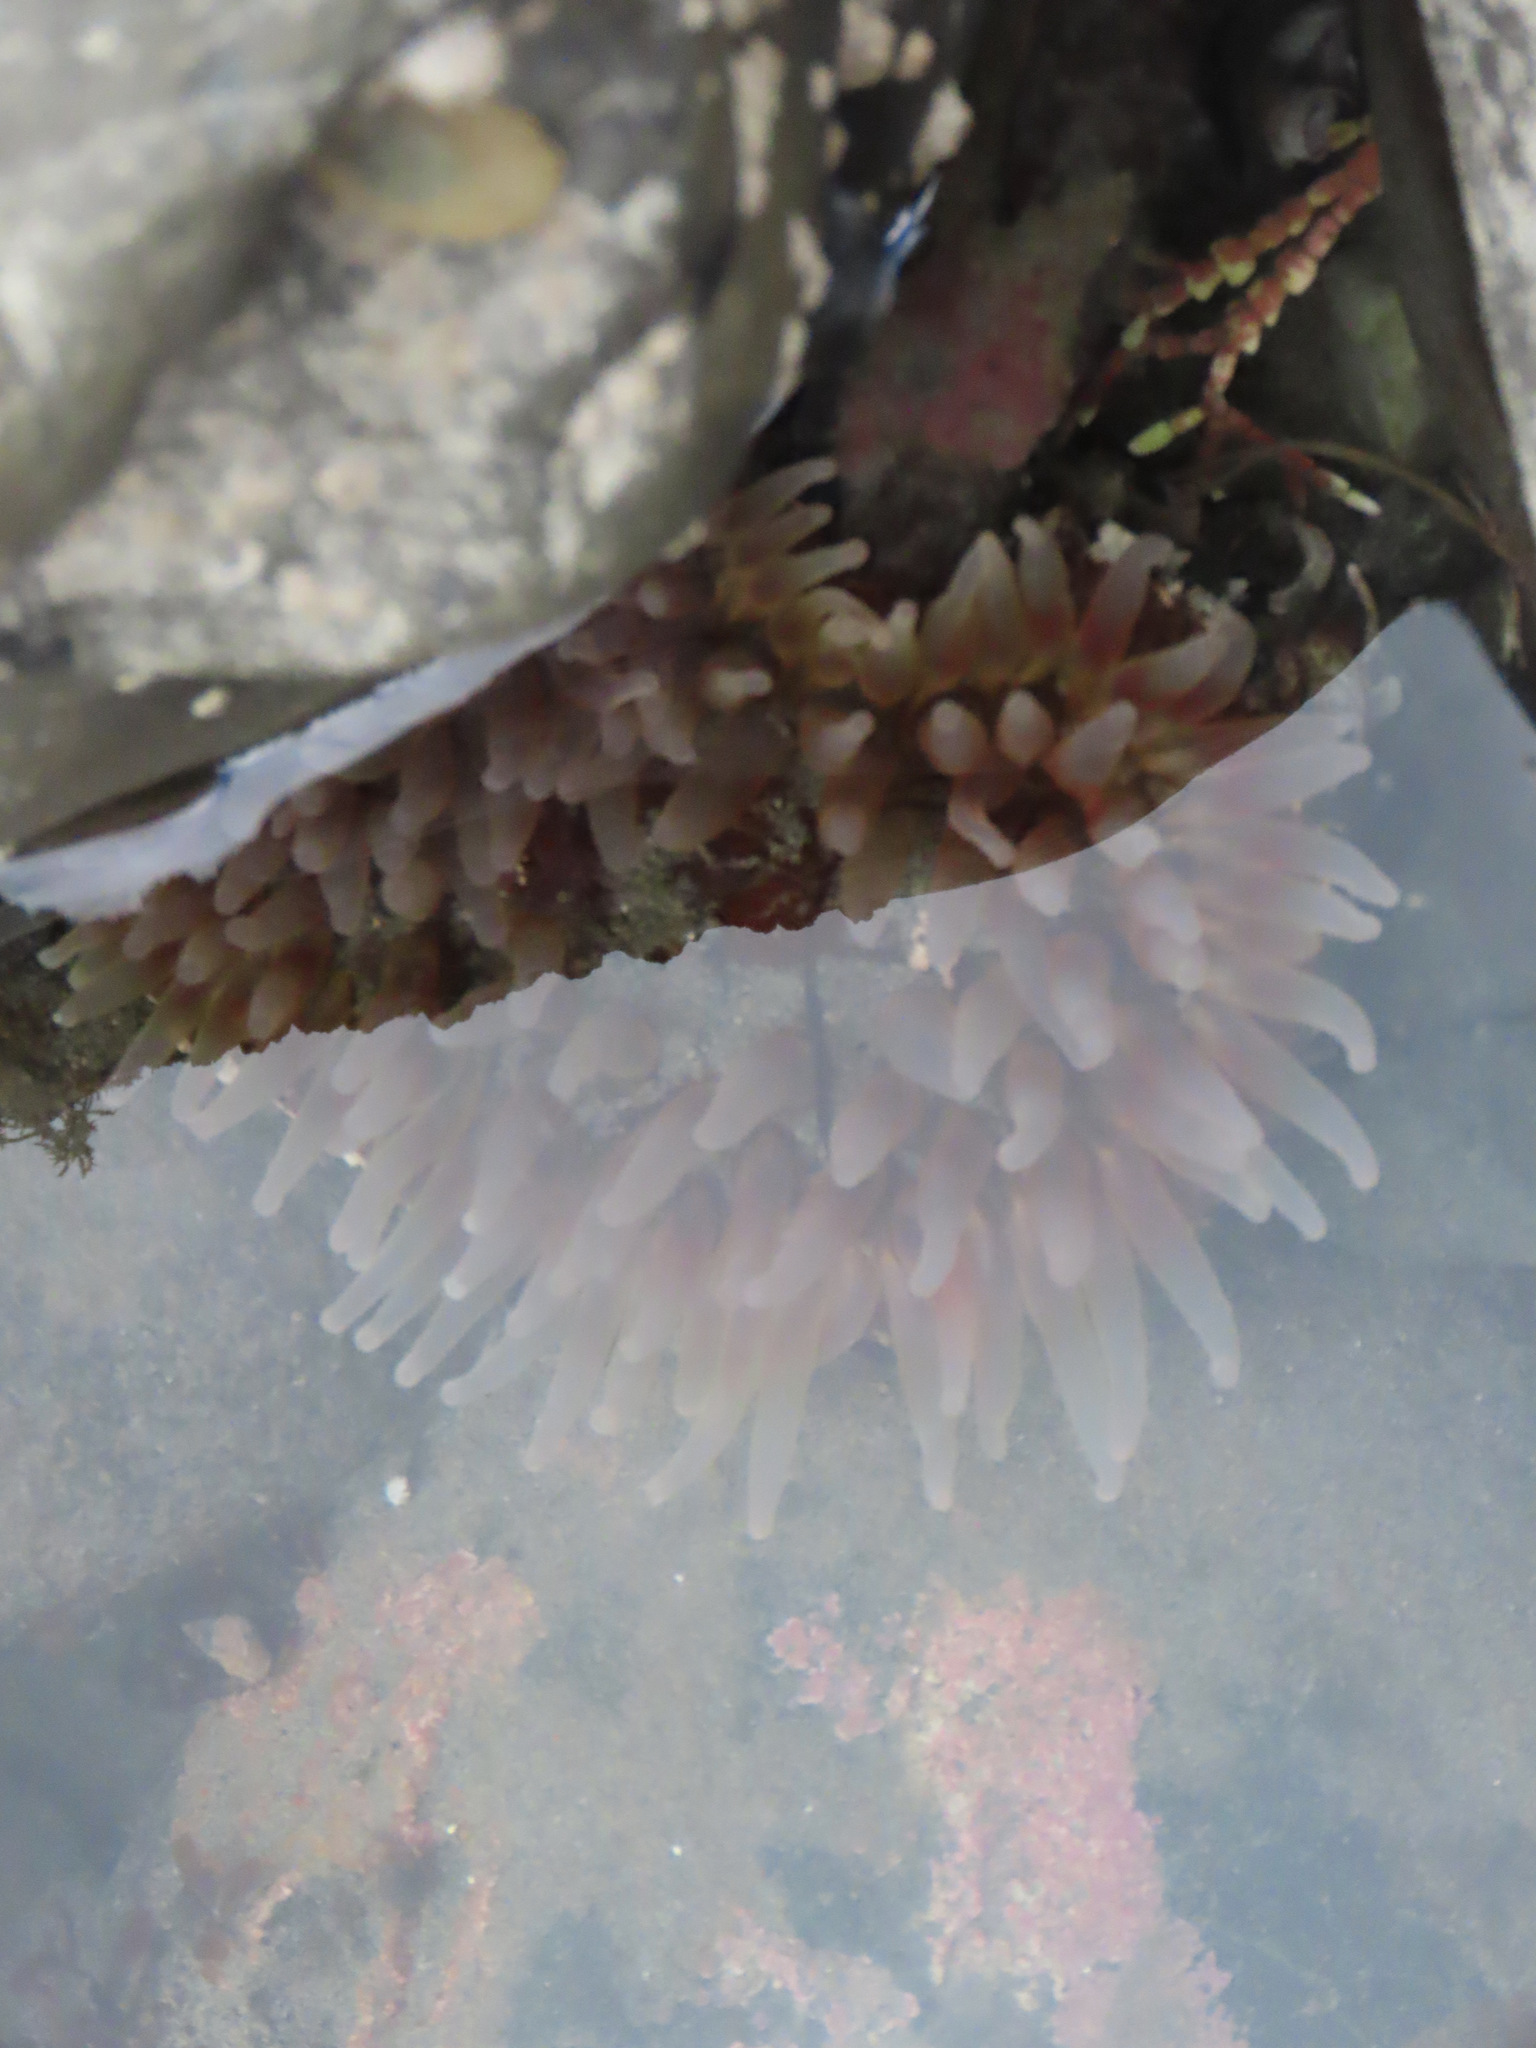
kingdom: Animalia
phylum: Cnidaria
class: Anthozoa
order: Actiniaria
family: Actiniidae
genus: Urticina
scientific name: Urticina clandestina
